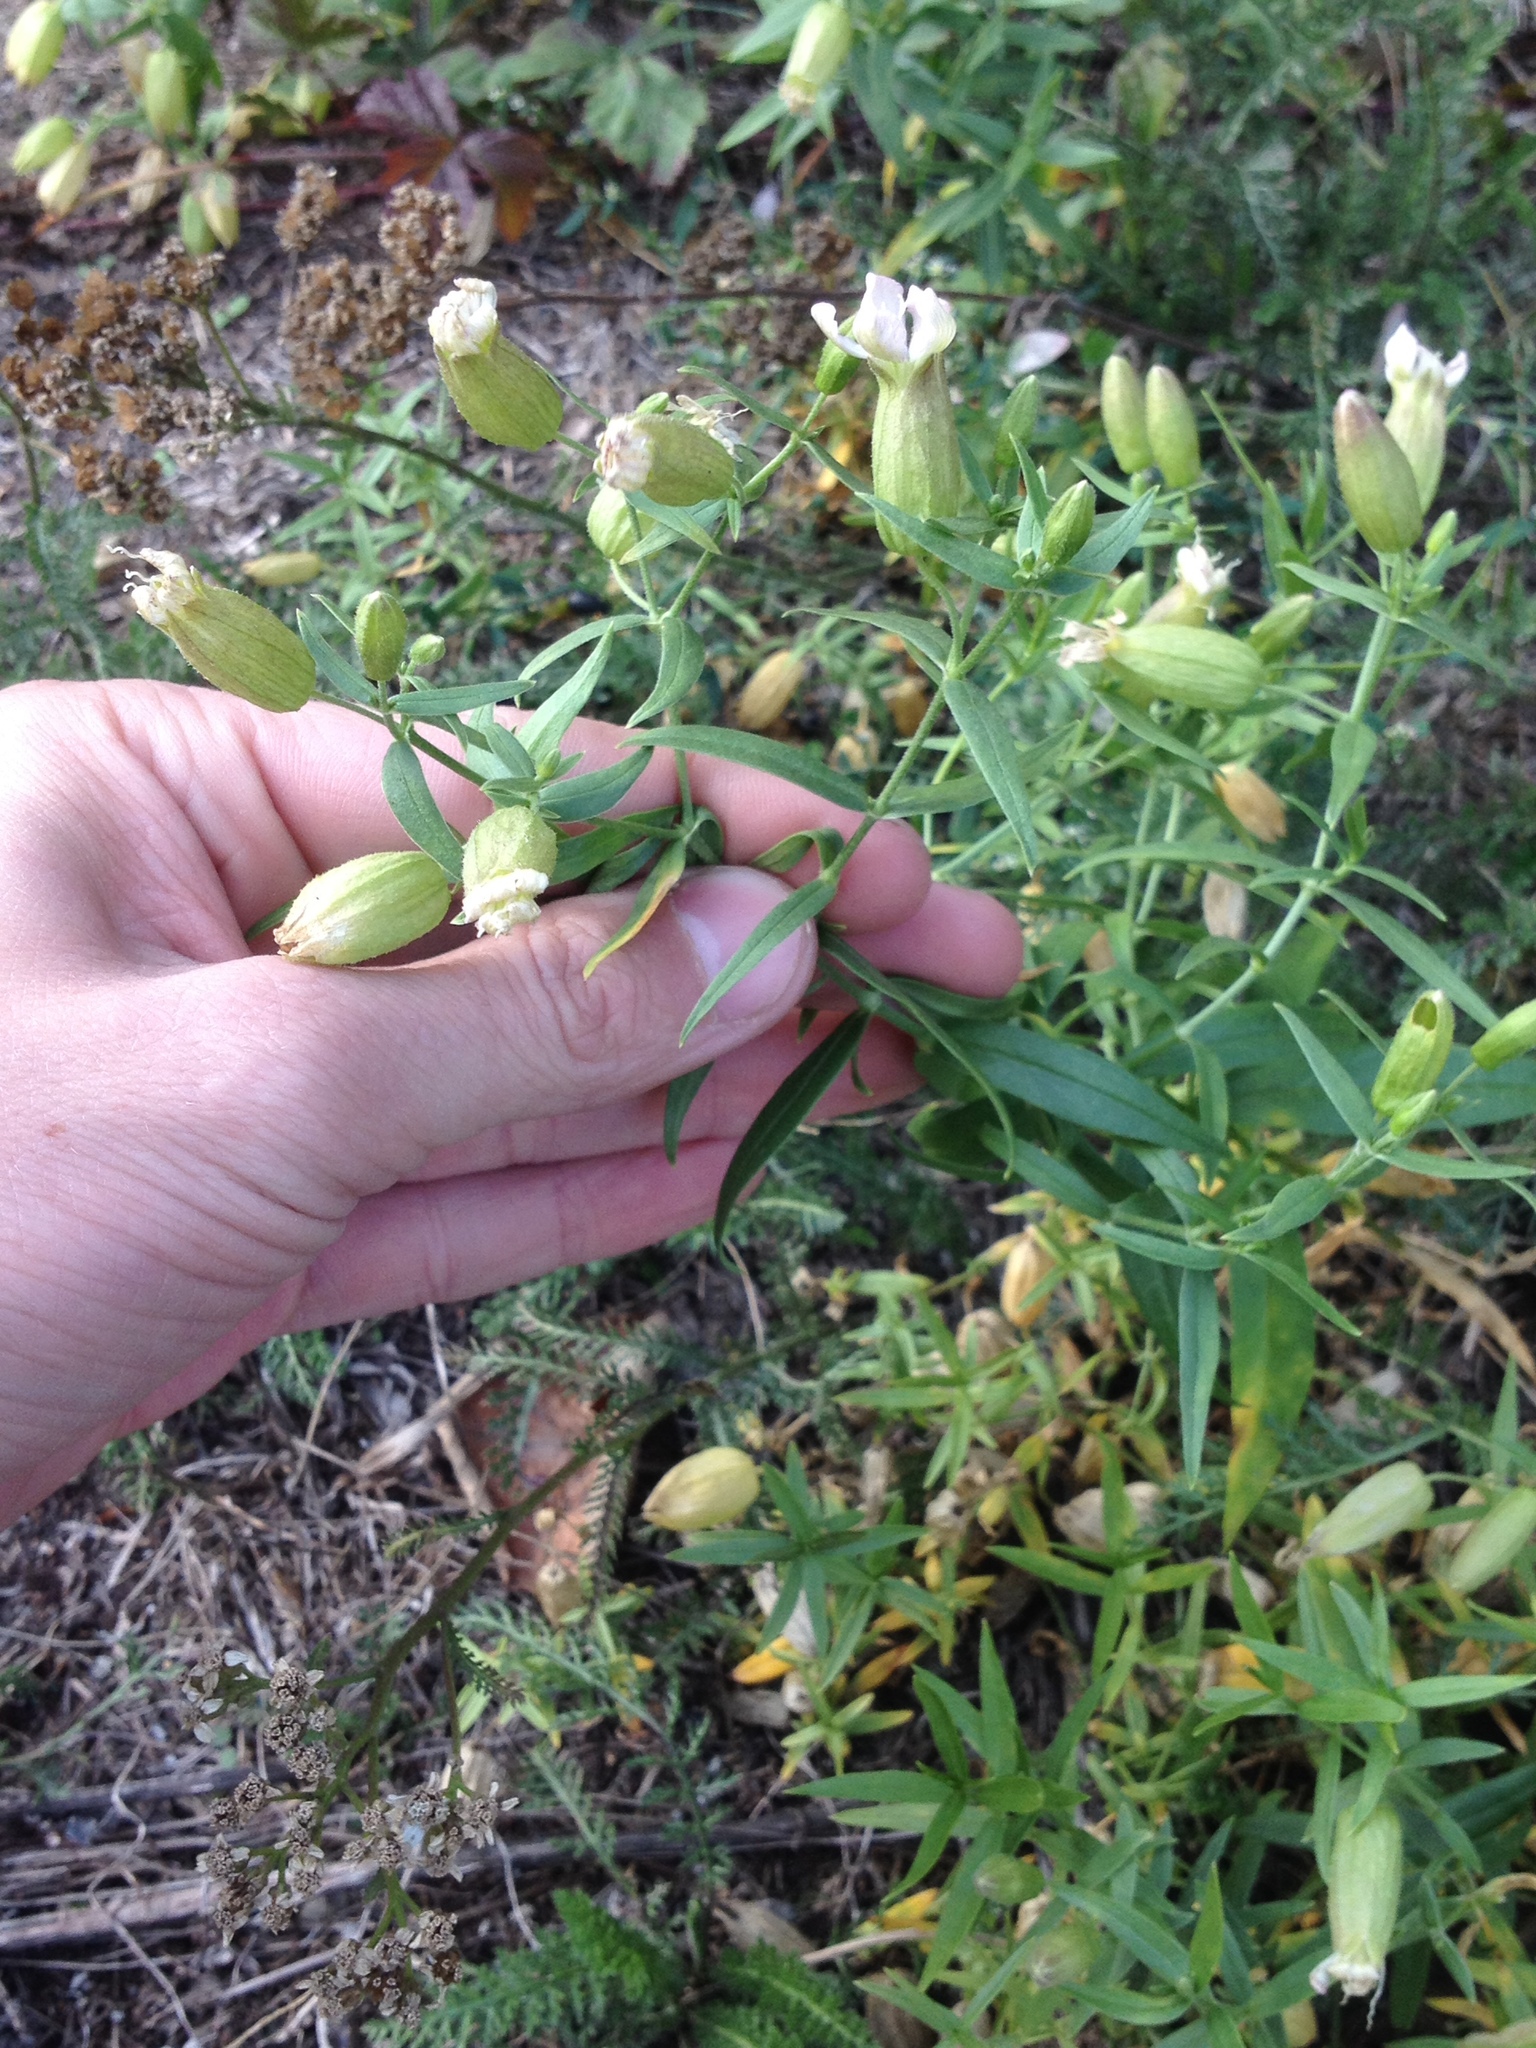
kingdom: Plantae
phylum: Tracheophyta
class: Magnoliopsida
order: Caryophyllales
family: Caryophyllaceae
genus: Silene
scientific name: Silene procumbens
